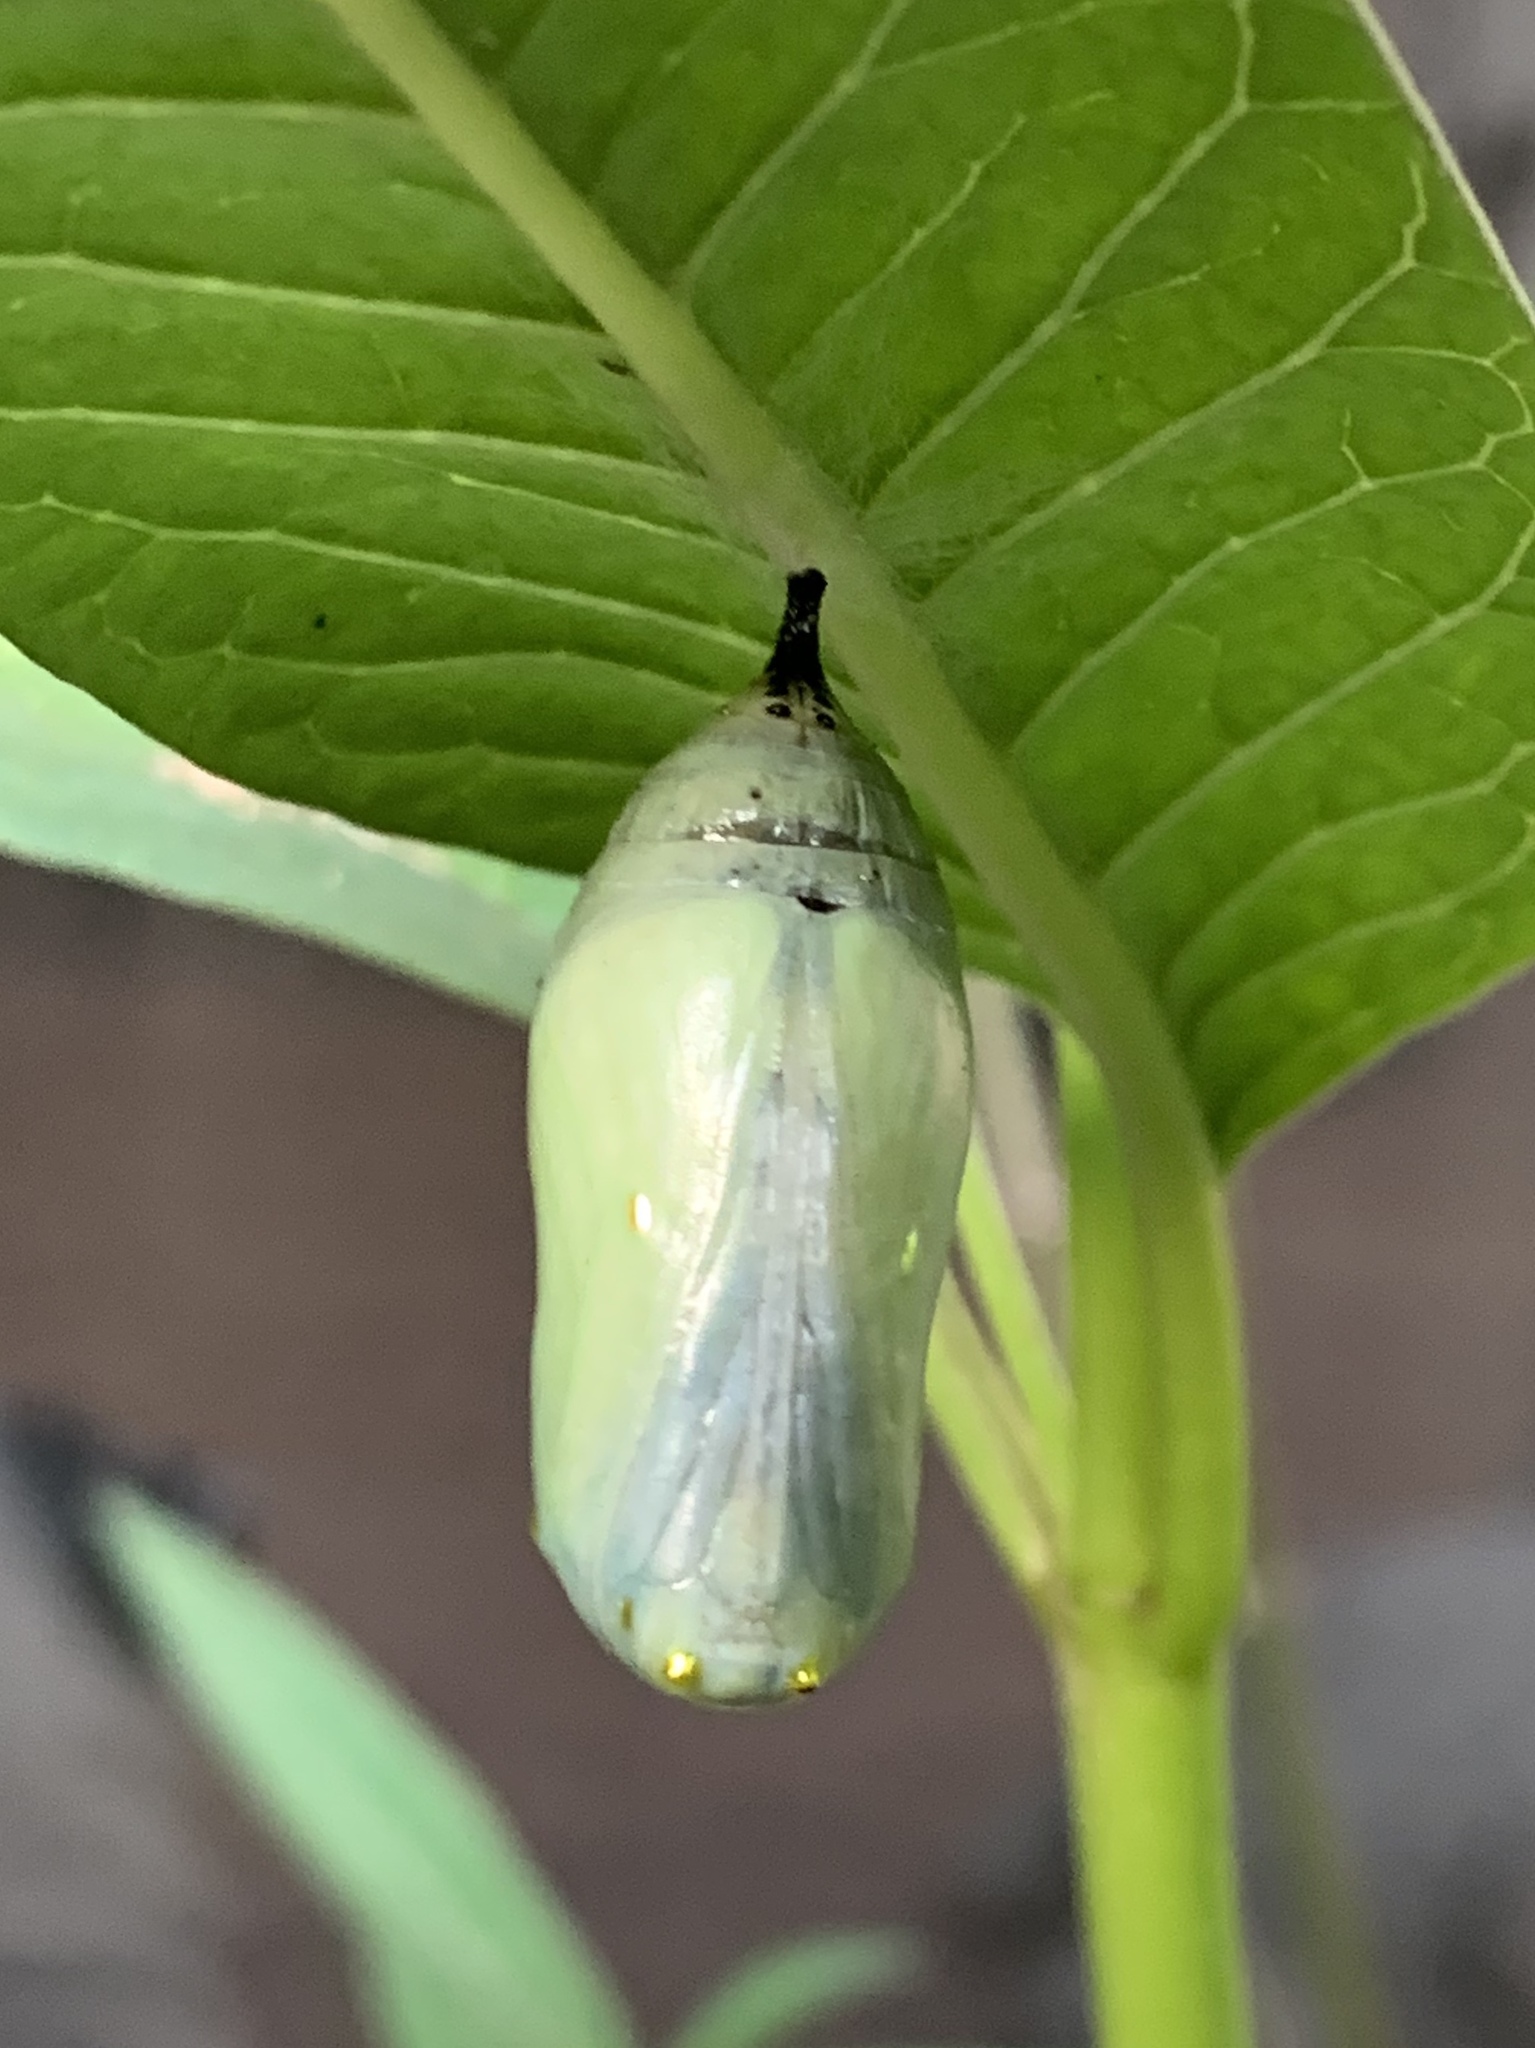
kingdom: Animalia
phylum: Arthropoda
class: Insecta
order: Lepidoptera
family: Nymphalidae
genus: Danaus
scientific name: Danaus plexippus
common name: Monarch
